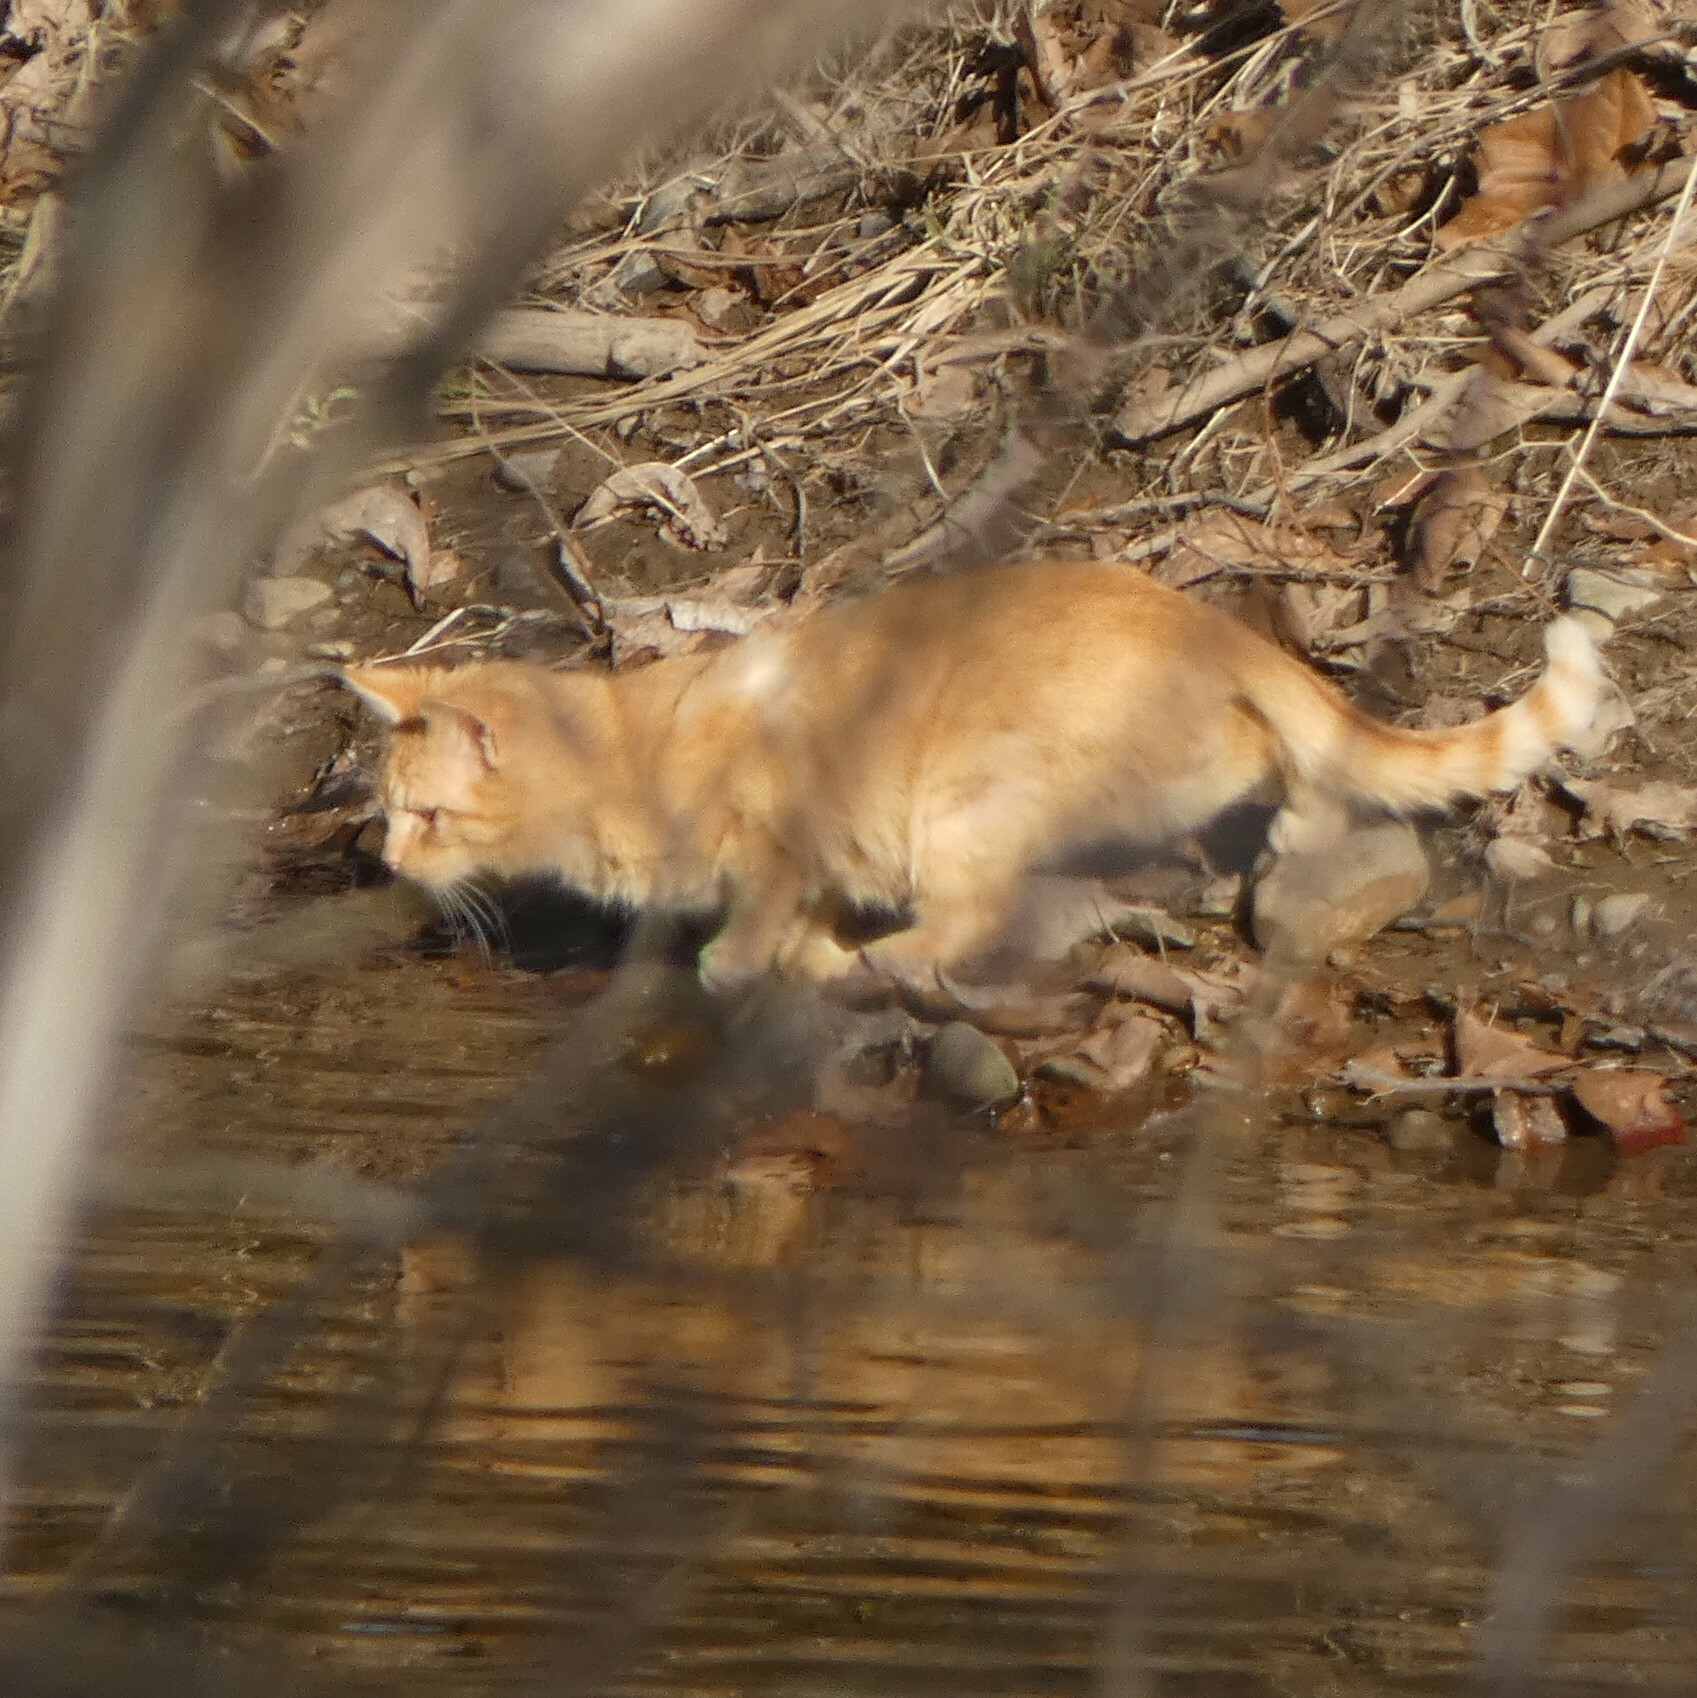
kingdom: Animalia
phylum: Chordata
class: Mammalia
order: Carnivora
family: Felidae
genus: Felis
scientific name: Felis catus
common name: Domestic cat
